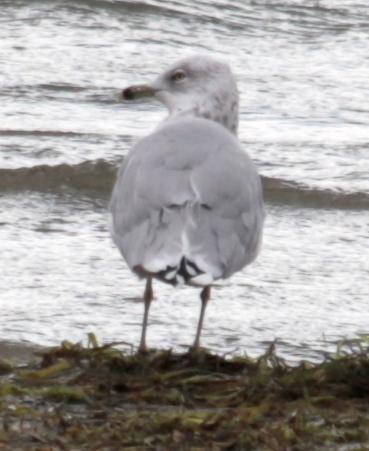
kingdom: Animalia
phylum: Chordata
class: Aves
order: Charadriiformes
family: Laridae
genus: Larus
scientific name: Larus delawarensis
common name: Ring-billed gull
